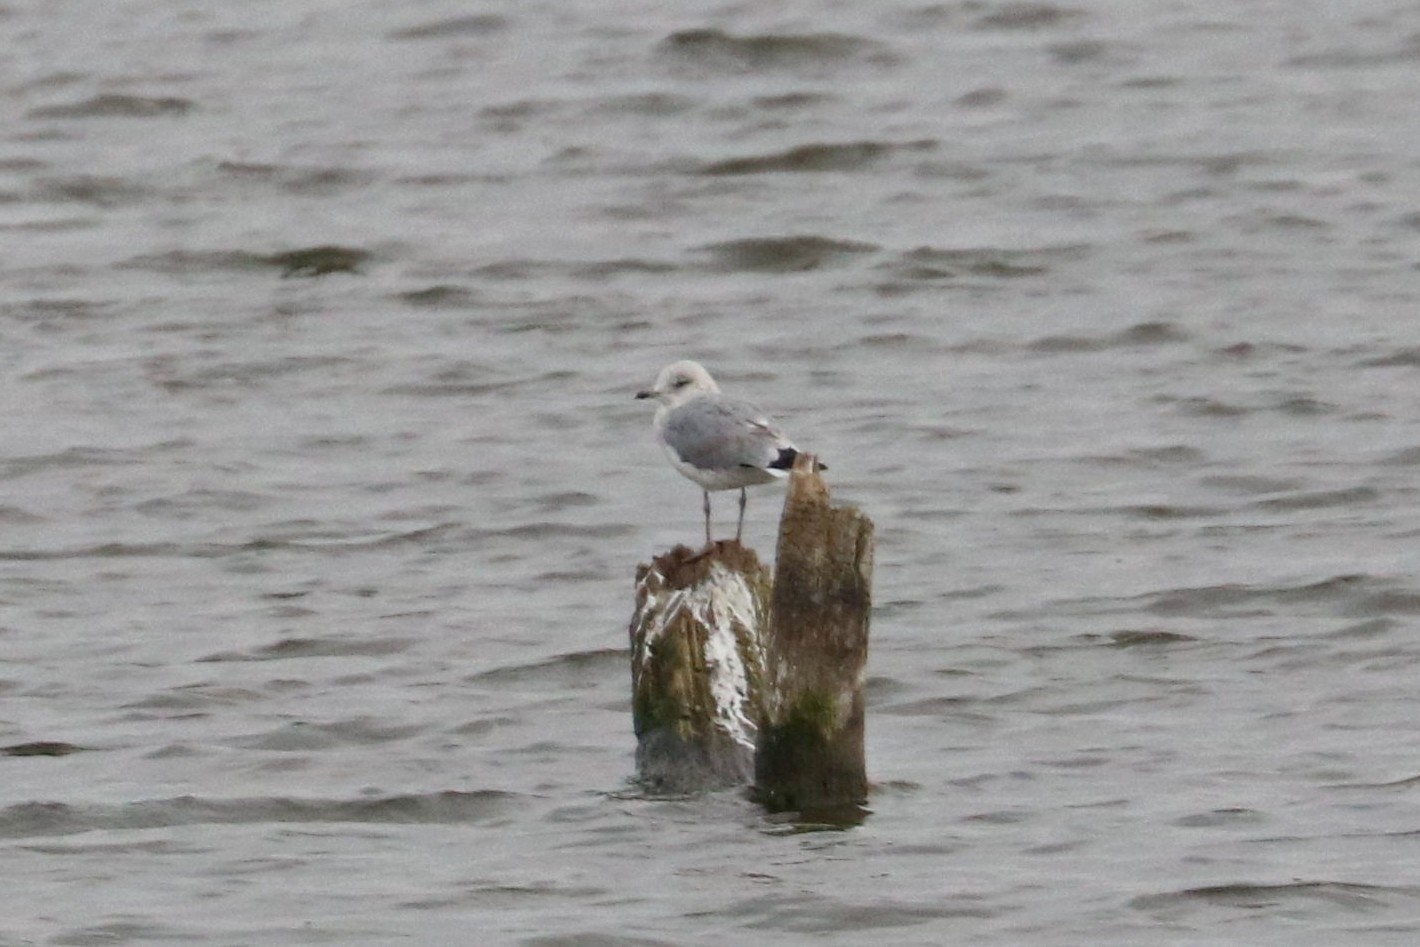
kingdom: Animalia
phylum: Chordata
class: Aves
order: Charadriiformes
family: Laridae
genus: Larus
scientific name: Larus canus
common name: Mew gull
